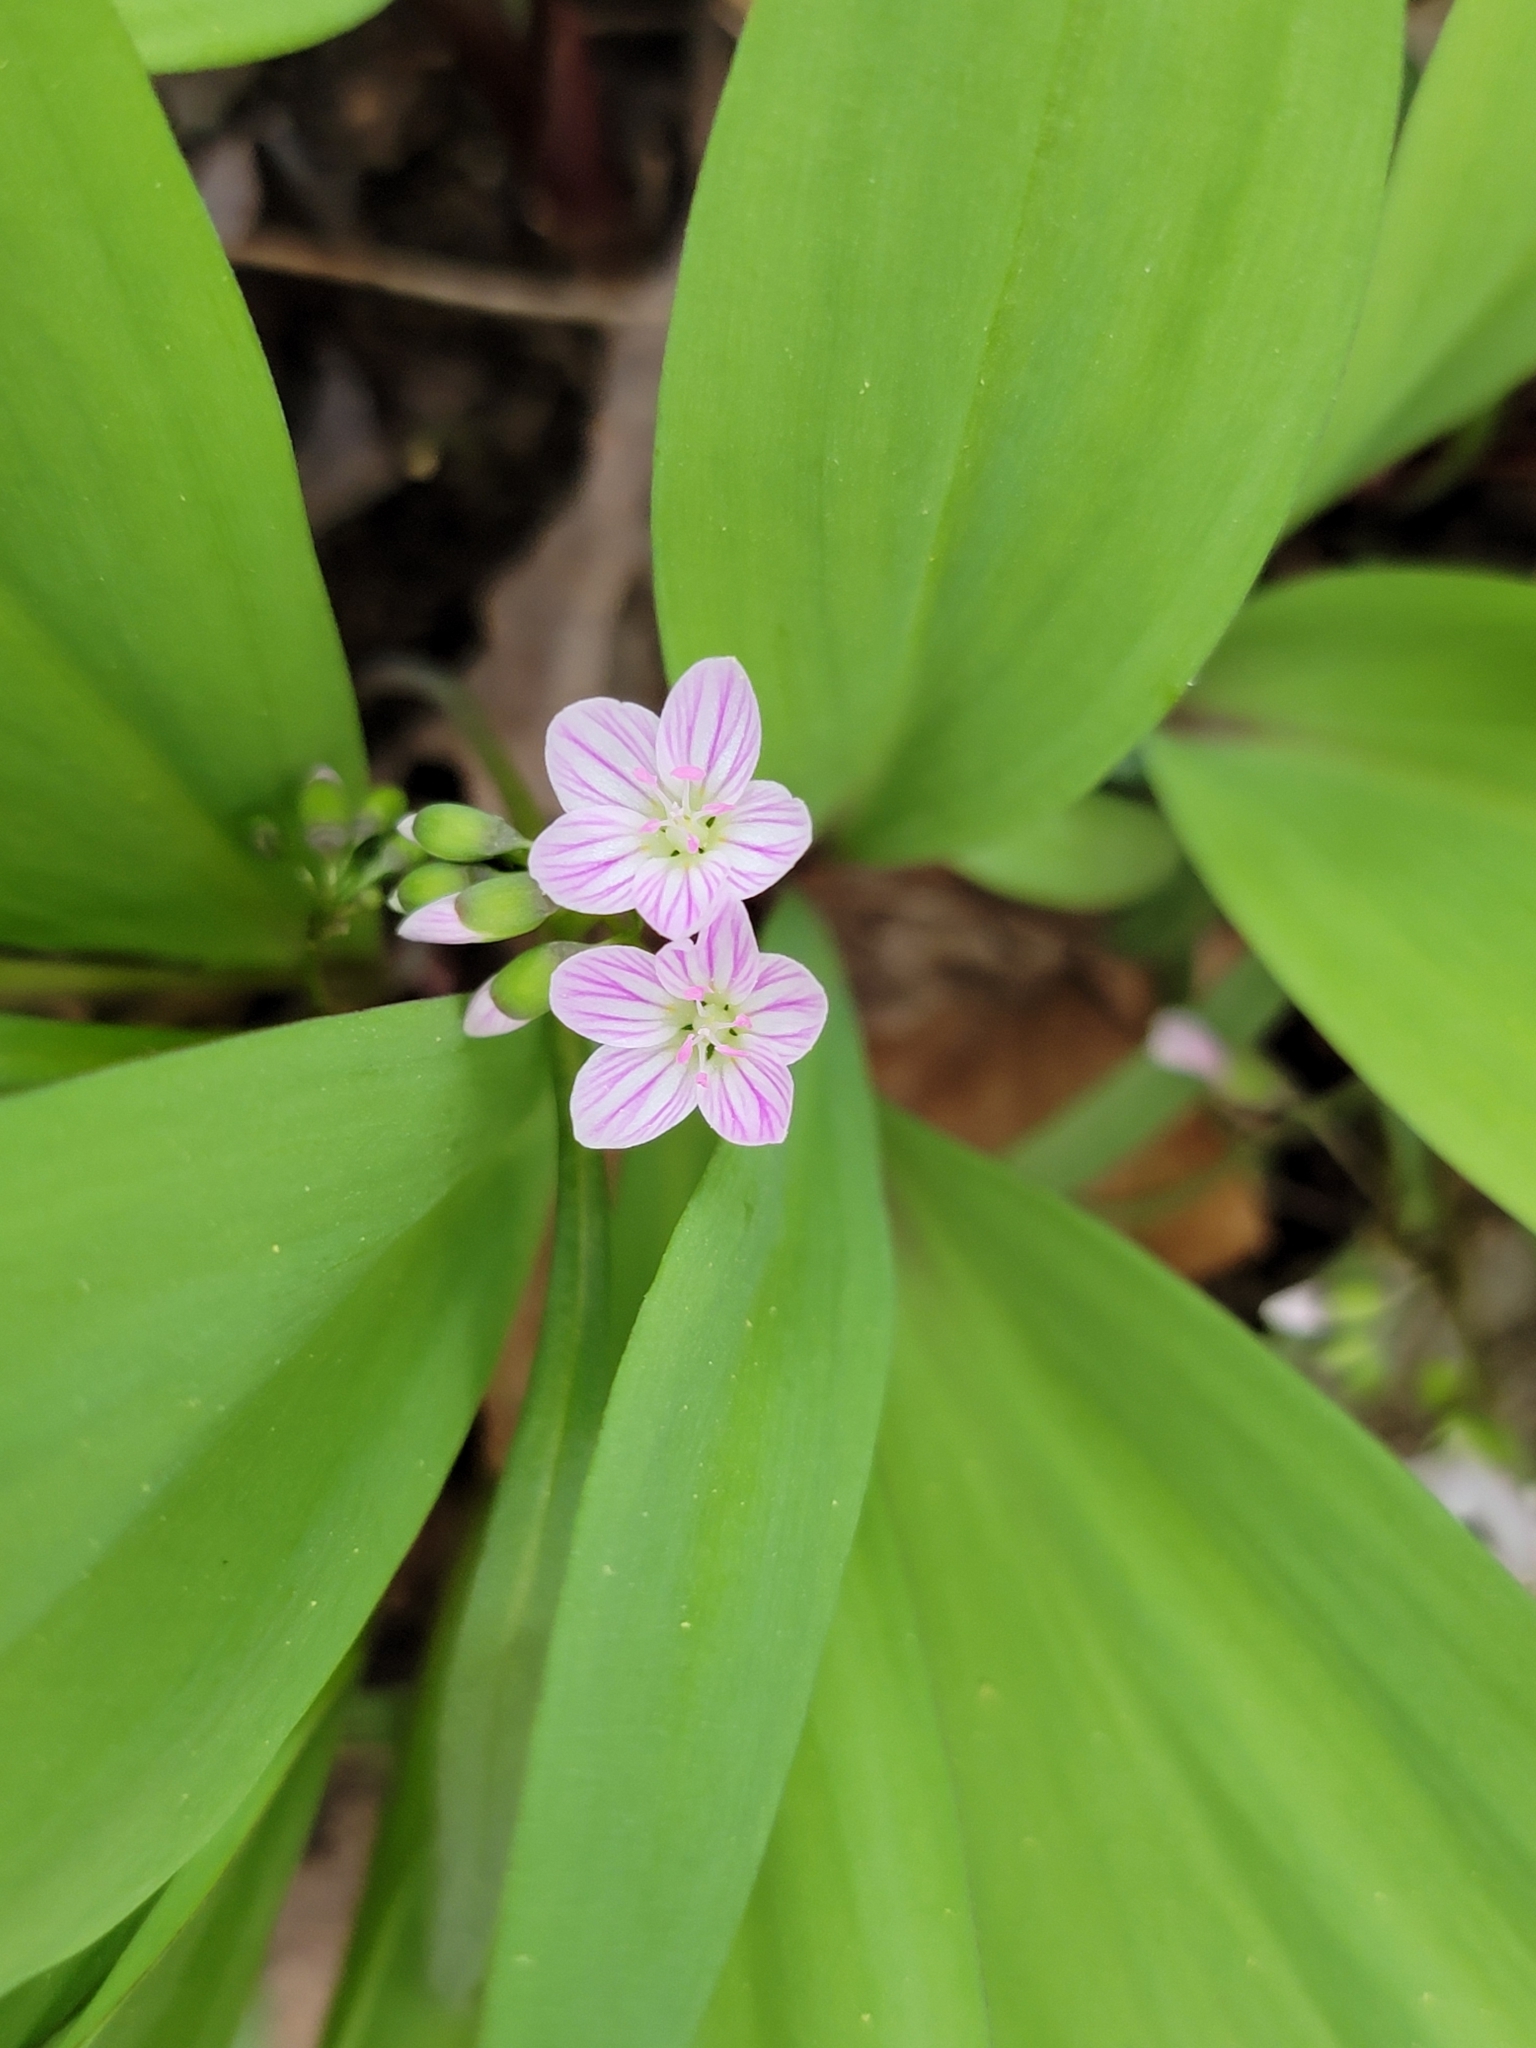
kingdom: Plantae
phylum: Tracheophyta
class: Magnoliopsida
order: Caryophyllales
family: Montiaceae
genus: Claytonia
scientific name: Claytonia virginica
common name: Virginia springbeauty
